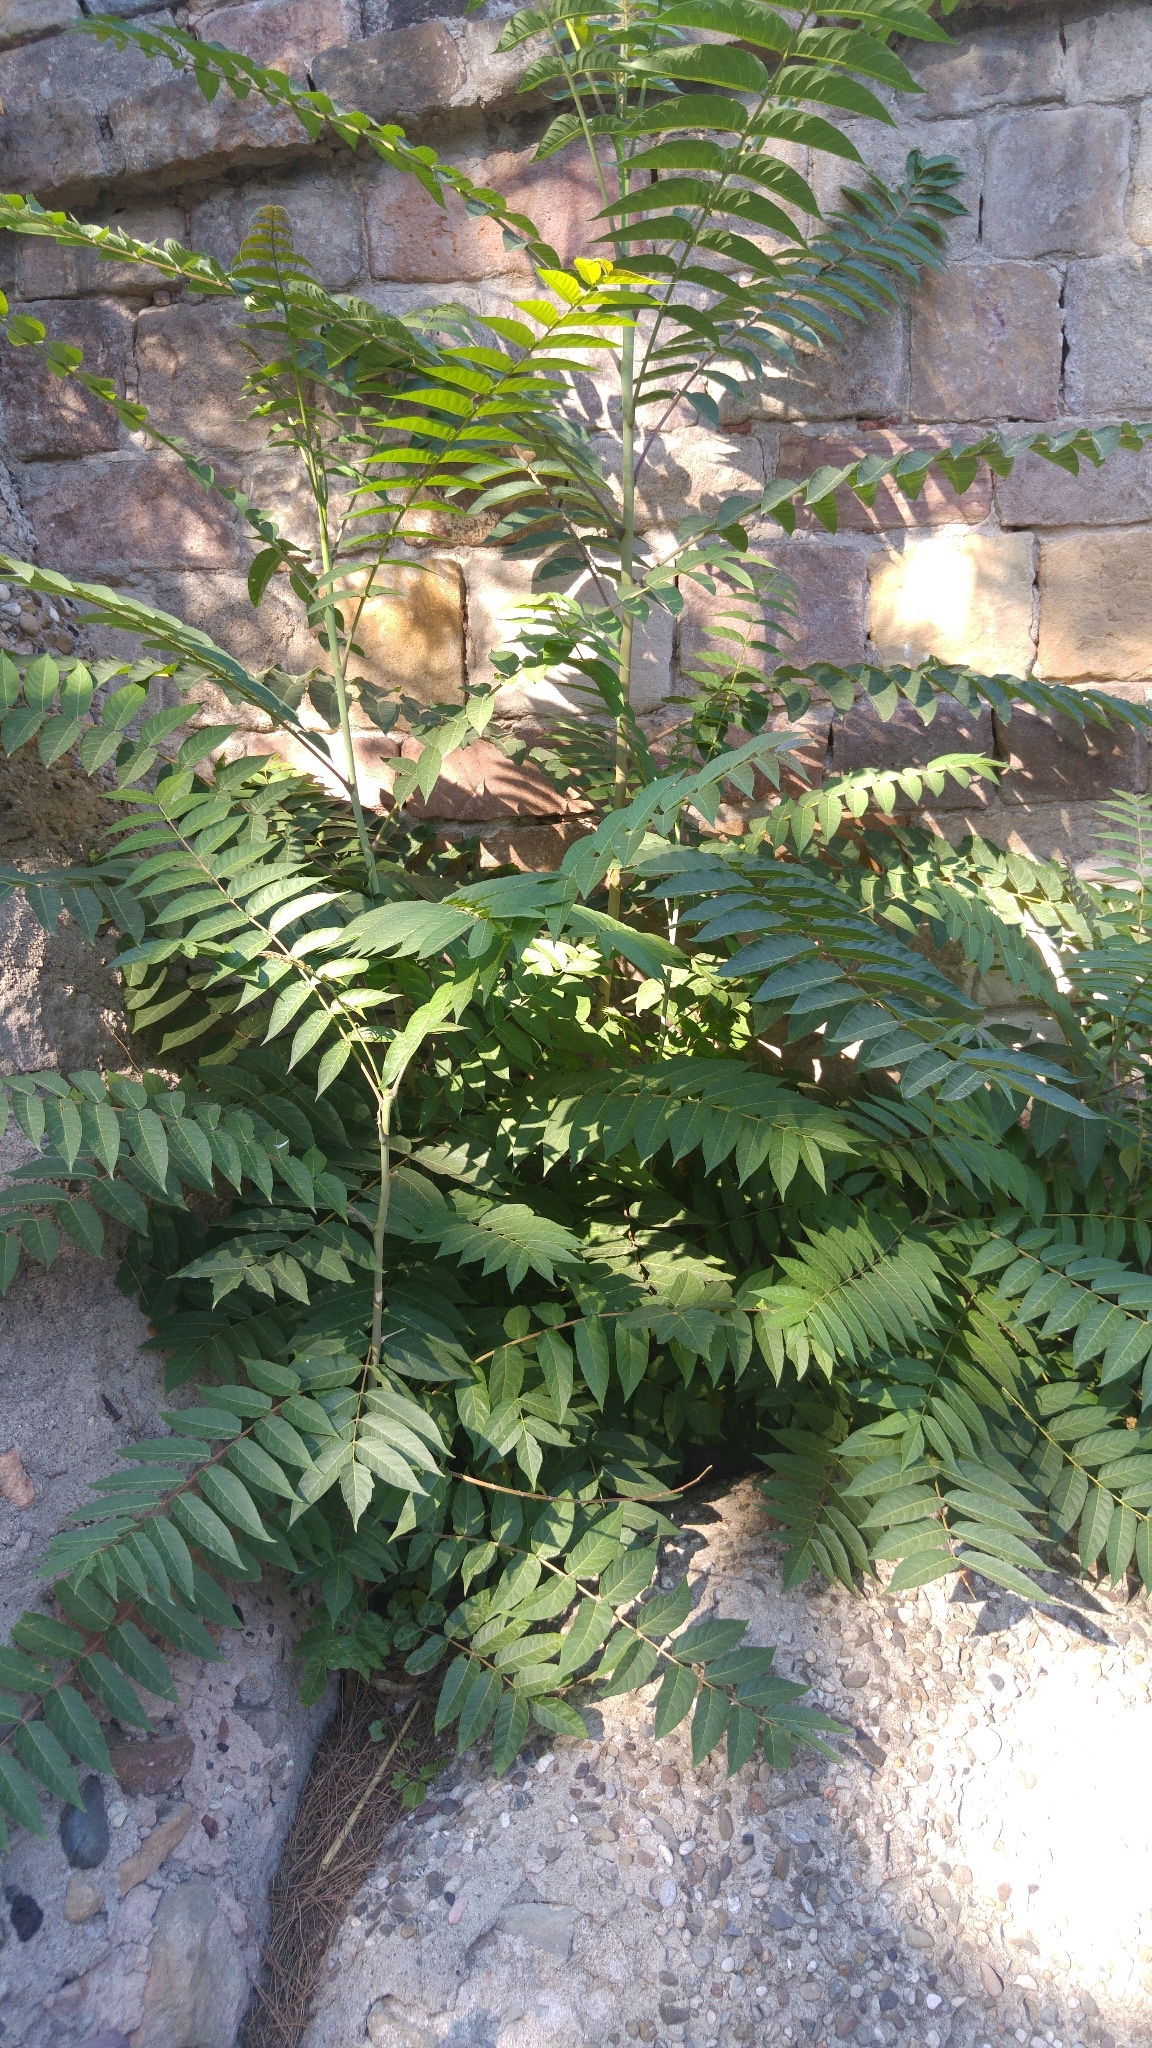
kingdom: Plantae
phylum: Tracheophyta
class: Magnoliopsida
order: Sapindales
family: Simaroubaceae
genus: Ailanthus
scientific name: Ailanthus altissima
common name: Tree-of-heaven
